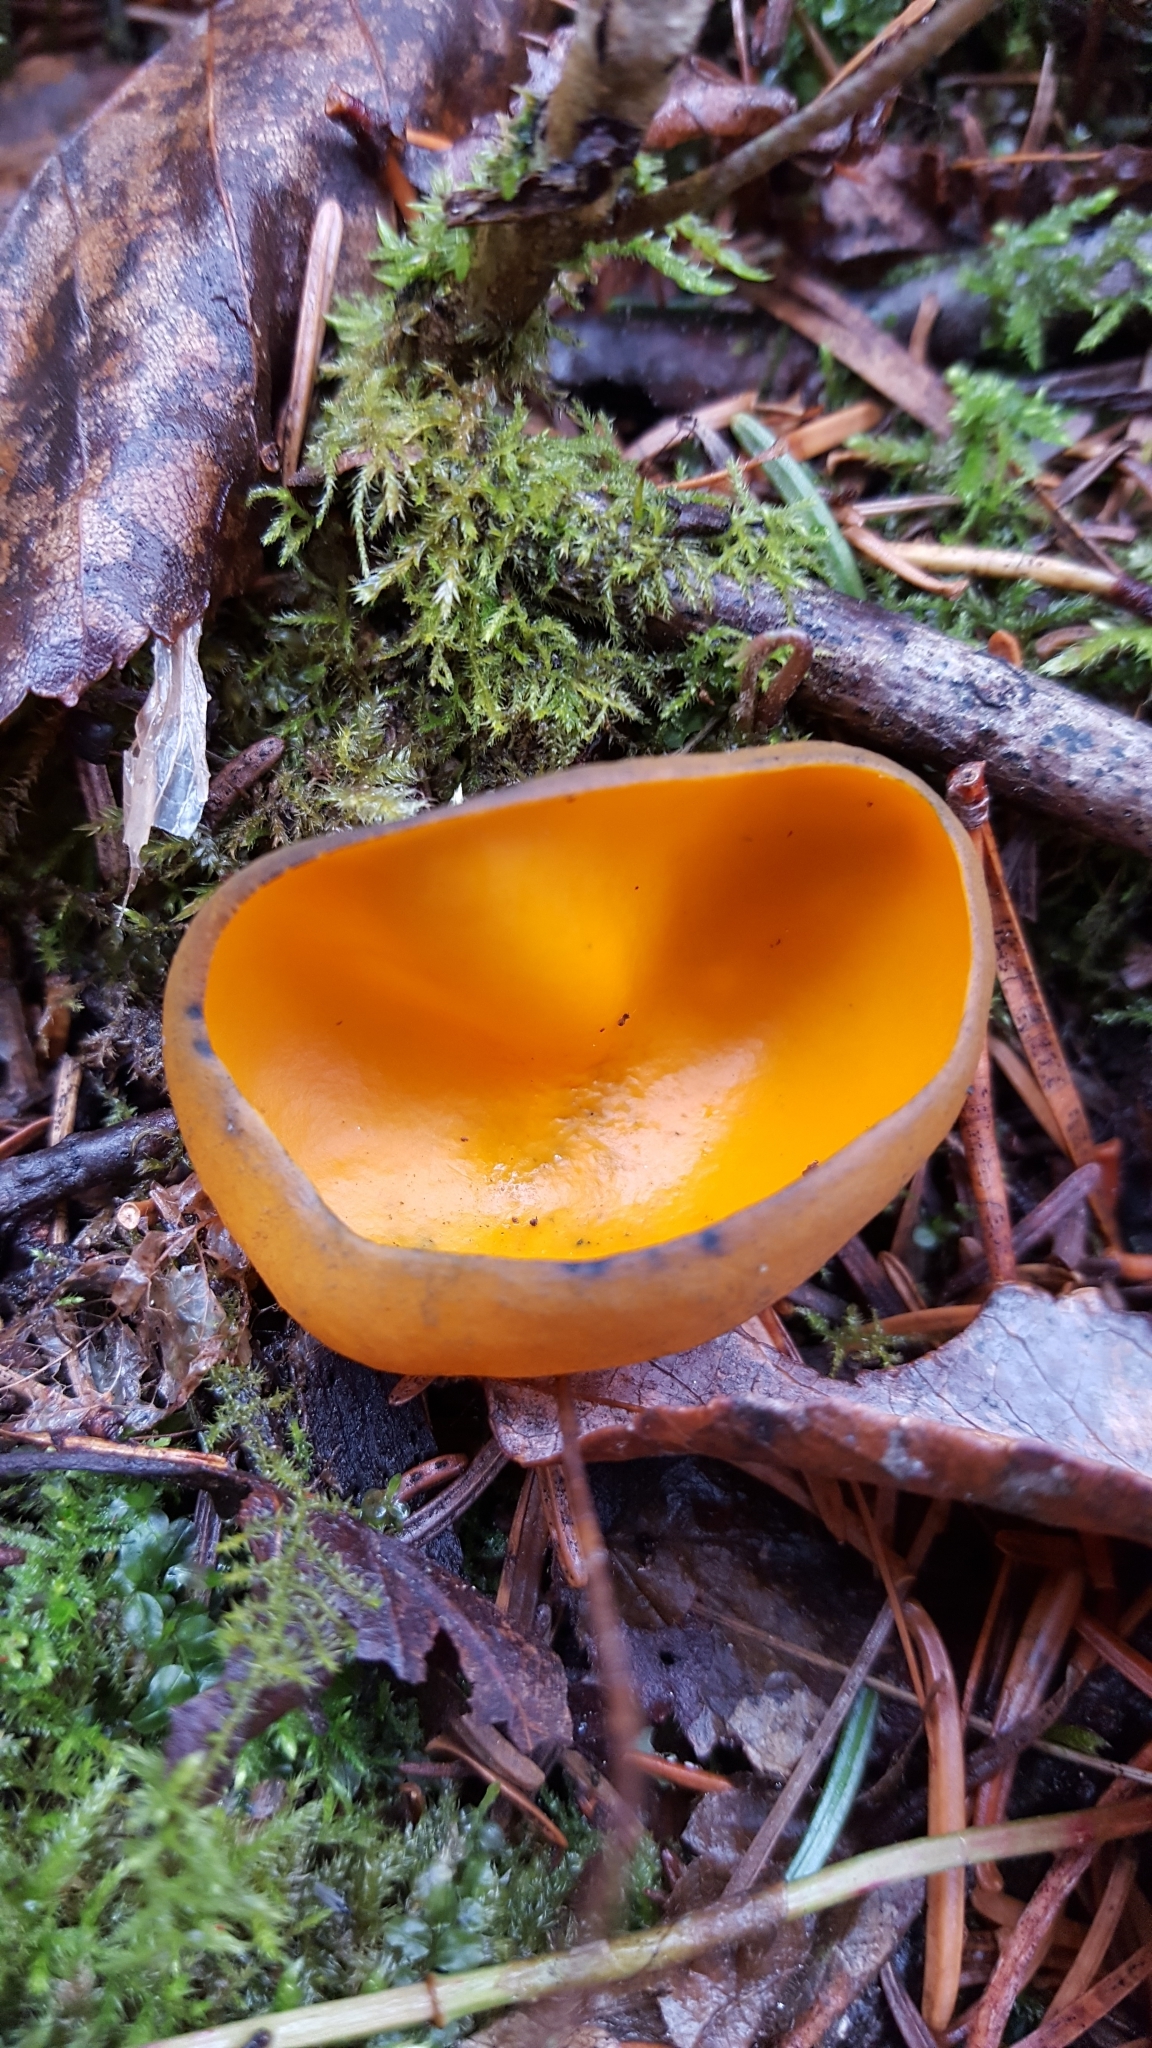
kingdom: Fungi
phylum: Ascomycota
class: Pezizomycetes
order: Pezizales
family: Caloscyphaceae
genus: Caloscypha
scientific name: Caloscypha fulgens
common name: Golden cup
